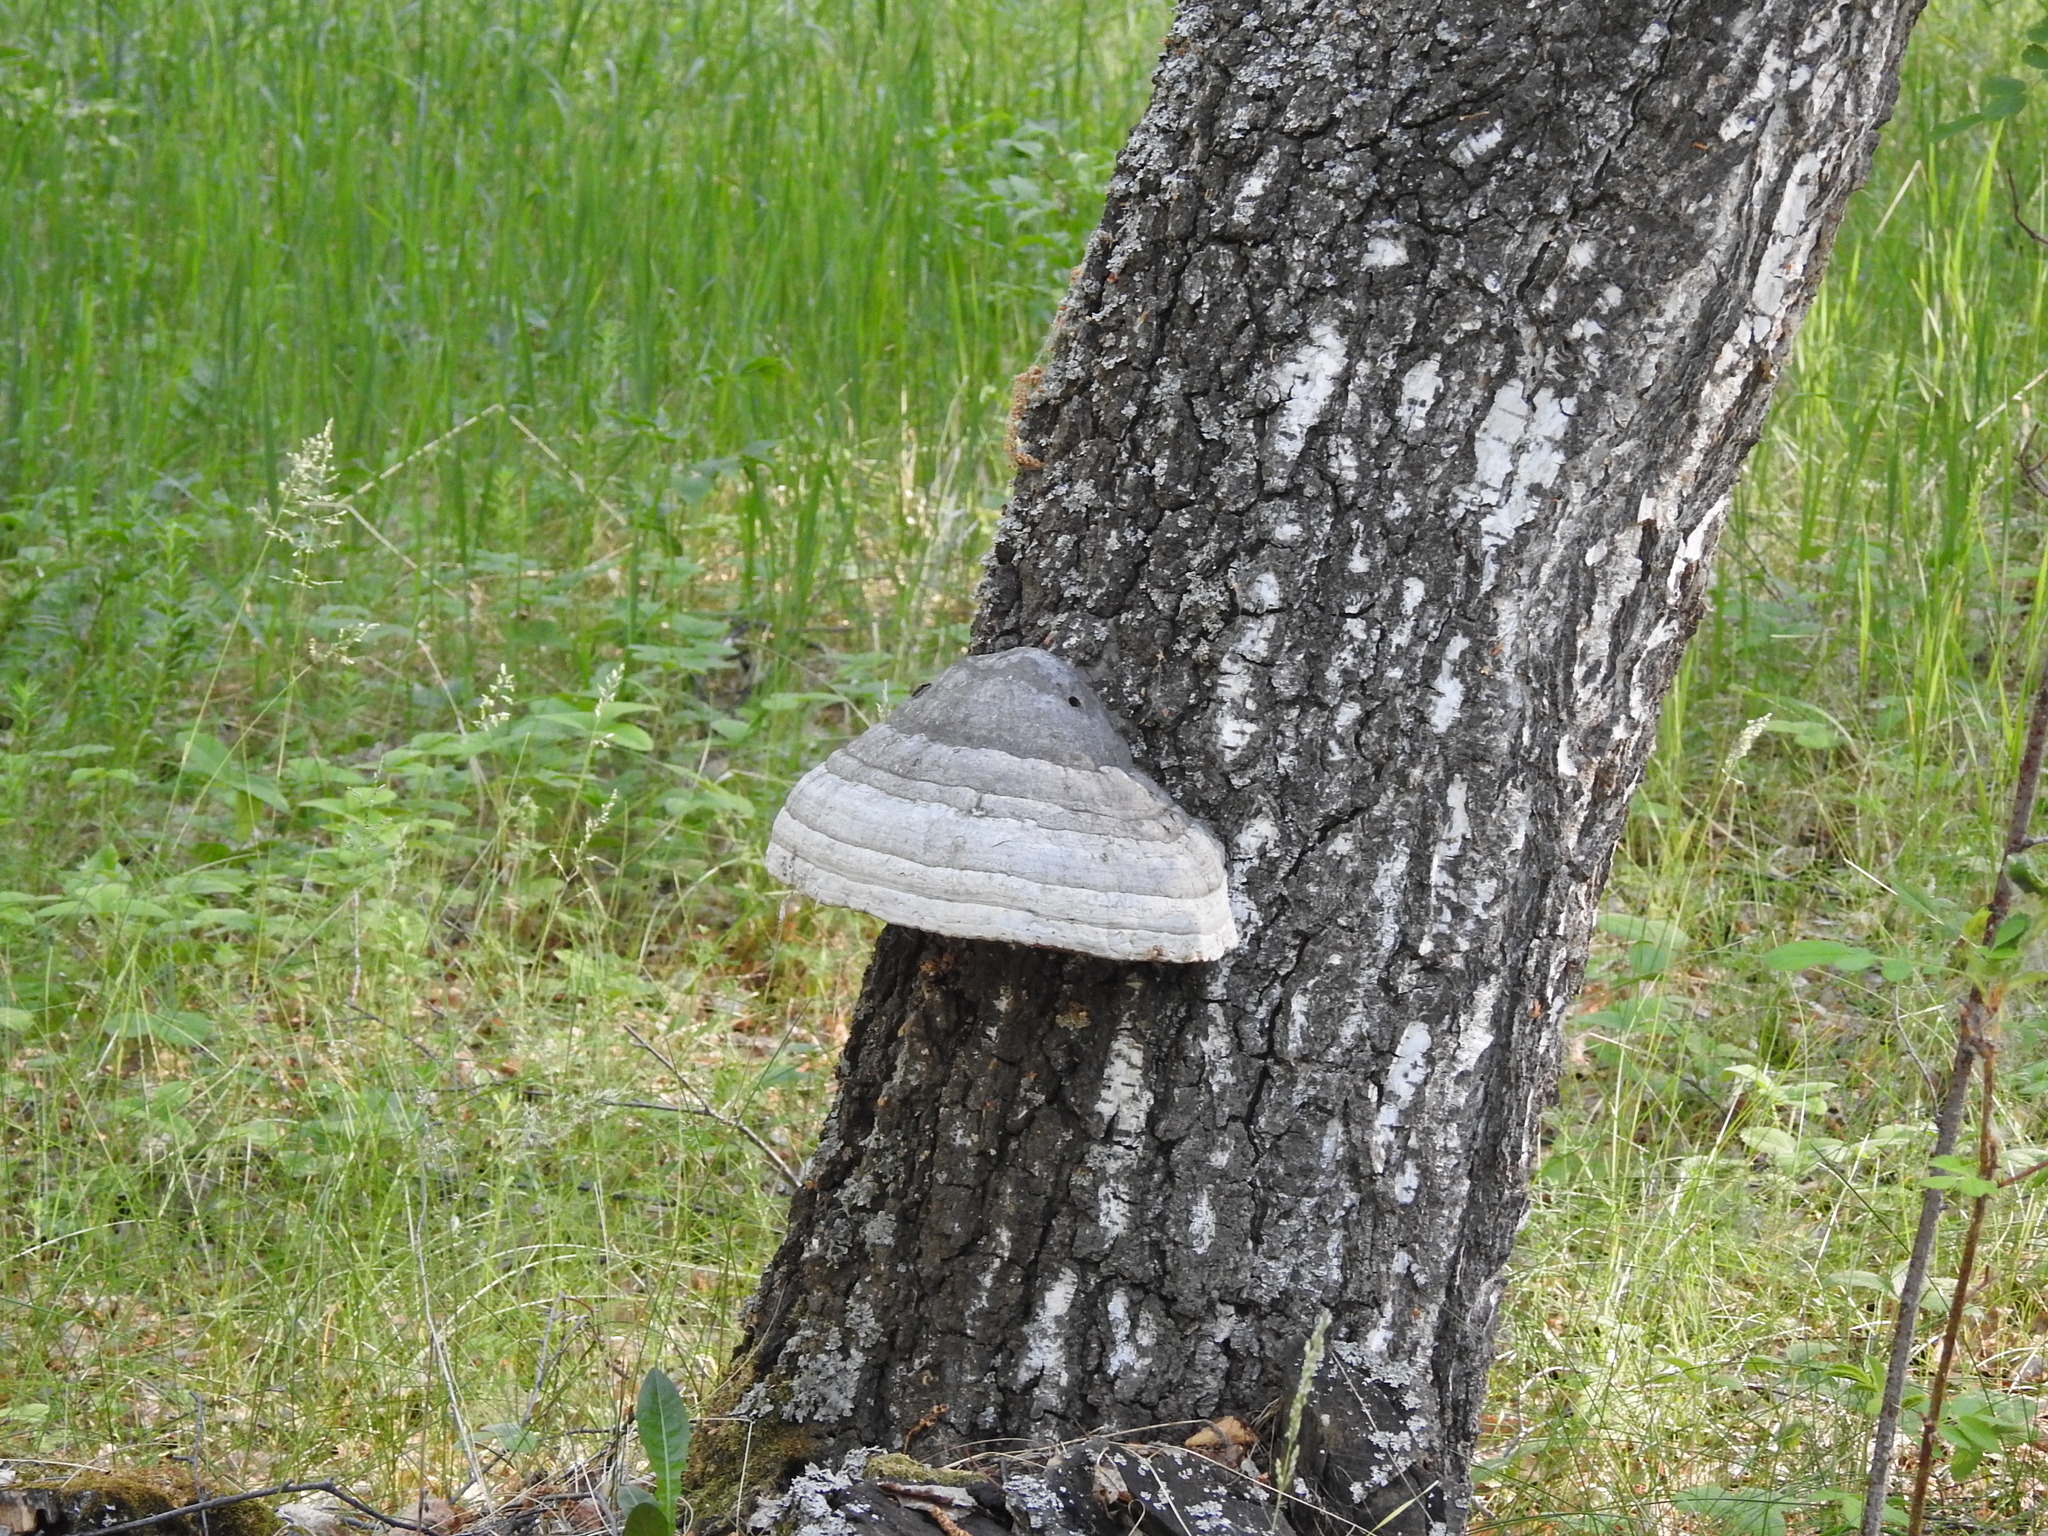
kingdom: Fungi
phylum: Basidiomycota
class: Agaricomycetes
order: Polyporales
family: Polyporaceae
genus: Fomes
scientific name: Fomes fomentarius
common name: Hoof fungus
